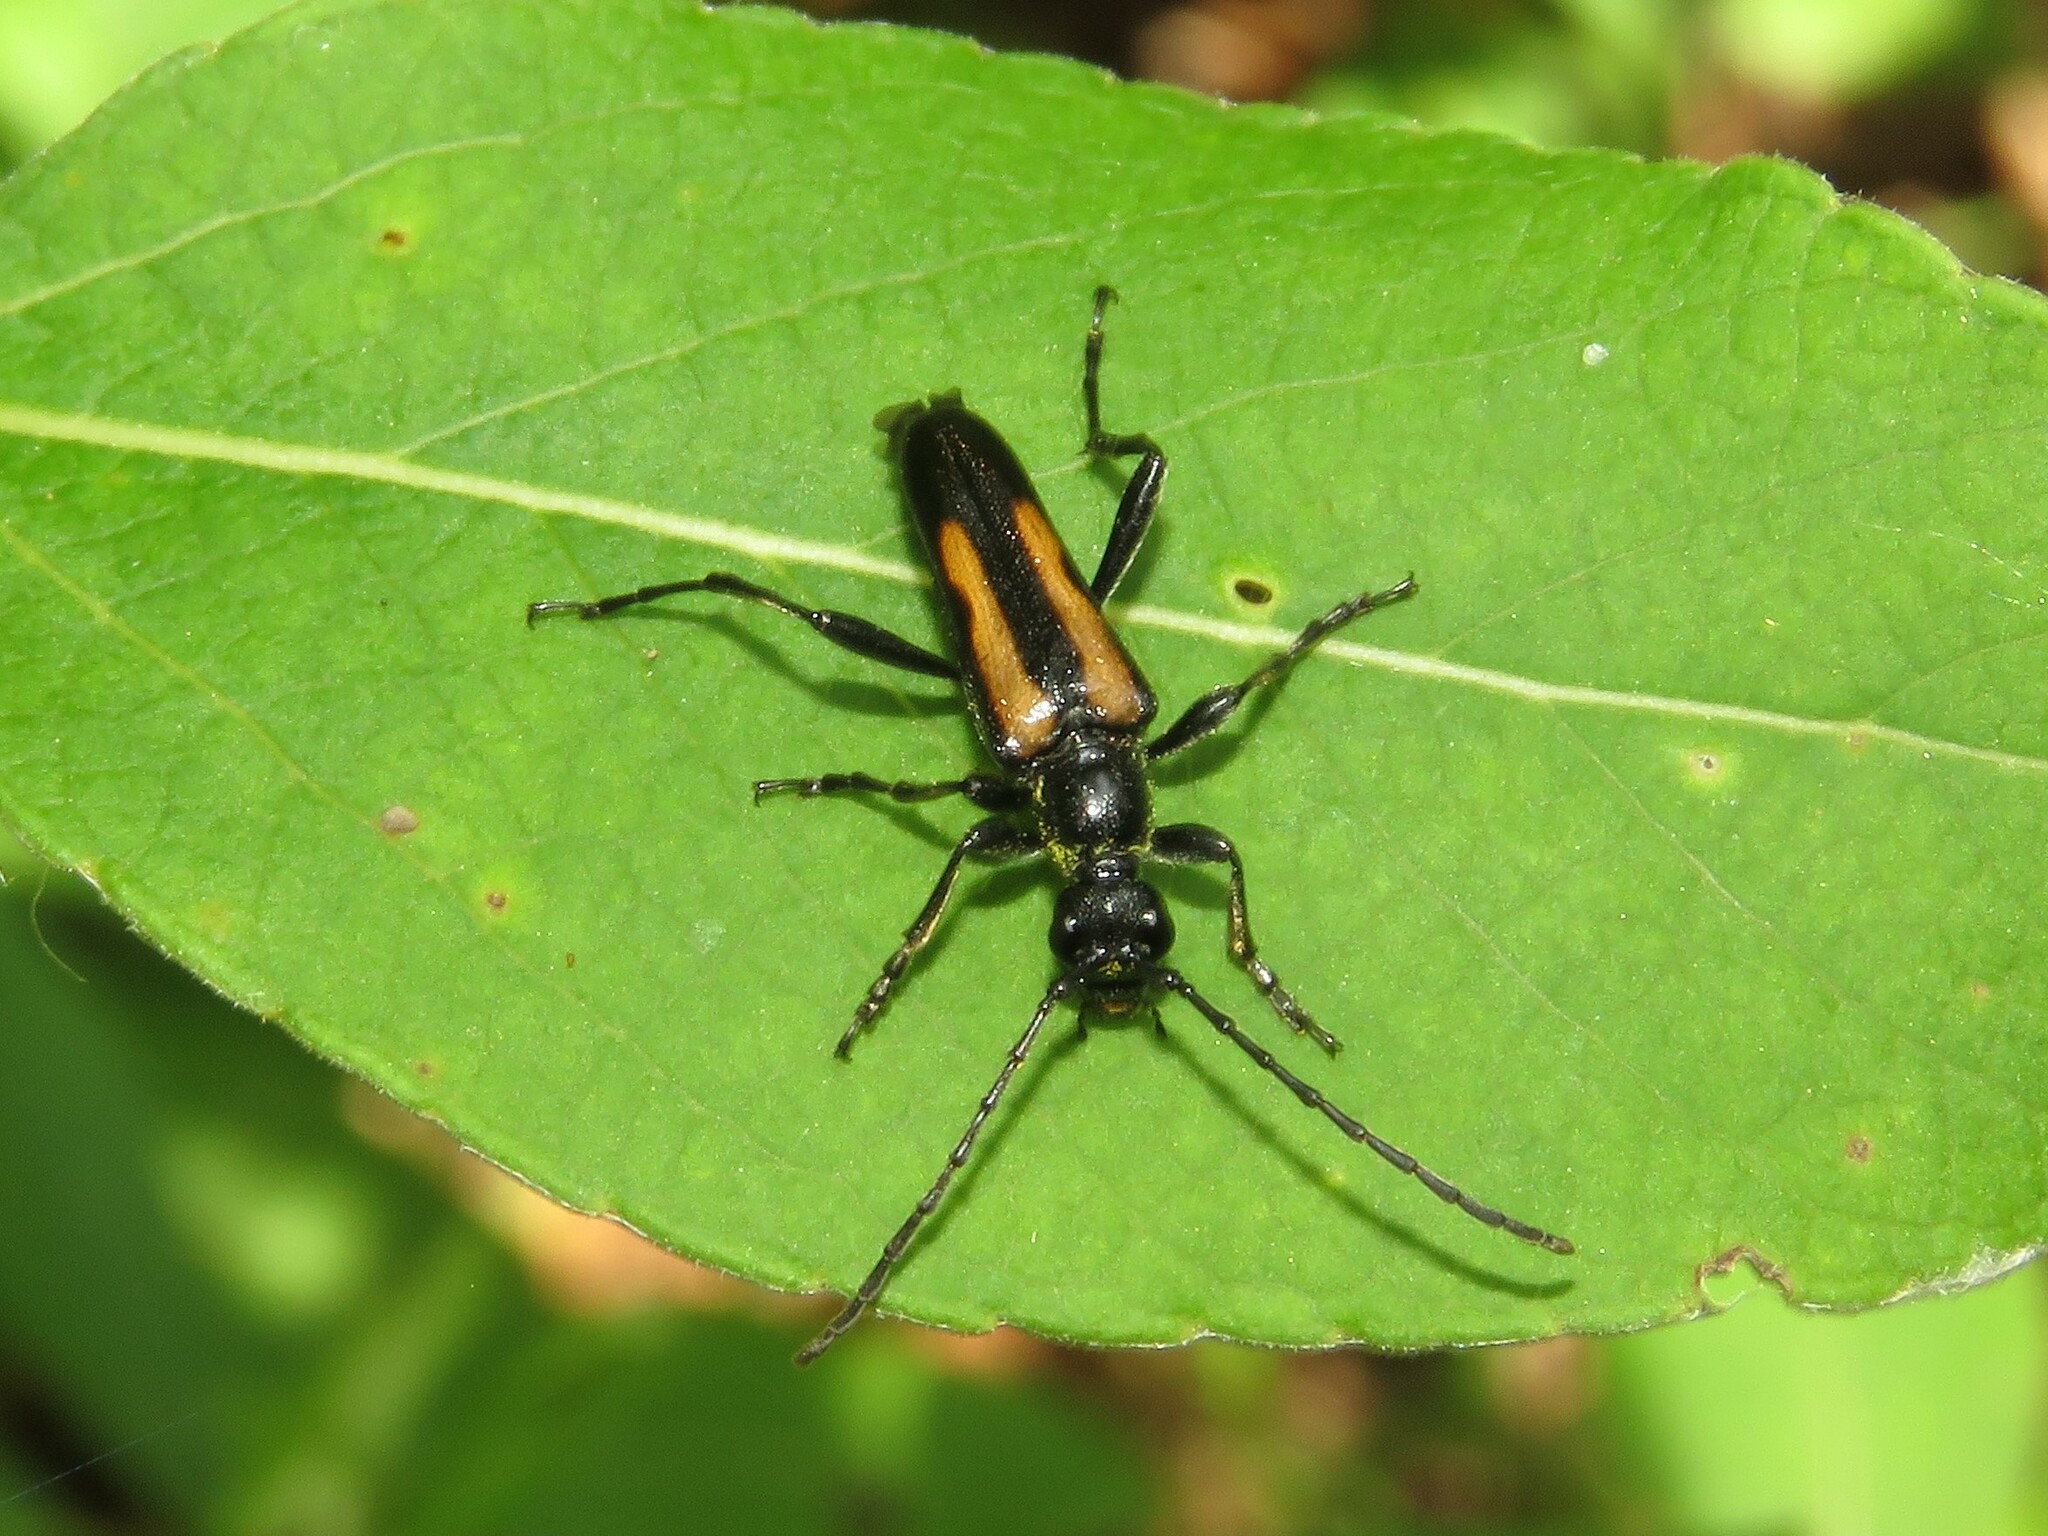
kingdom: Animalia
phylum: Arthropoda
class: Insecta
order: Coleoptera
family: Cerambycidae
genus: Strangalepta
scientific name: Strangalepta abbreviata
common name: Strangalepta flower longhorn beetle
